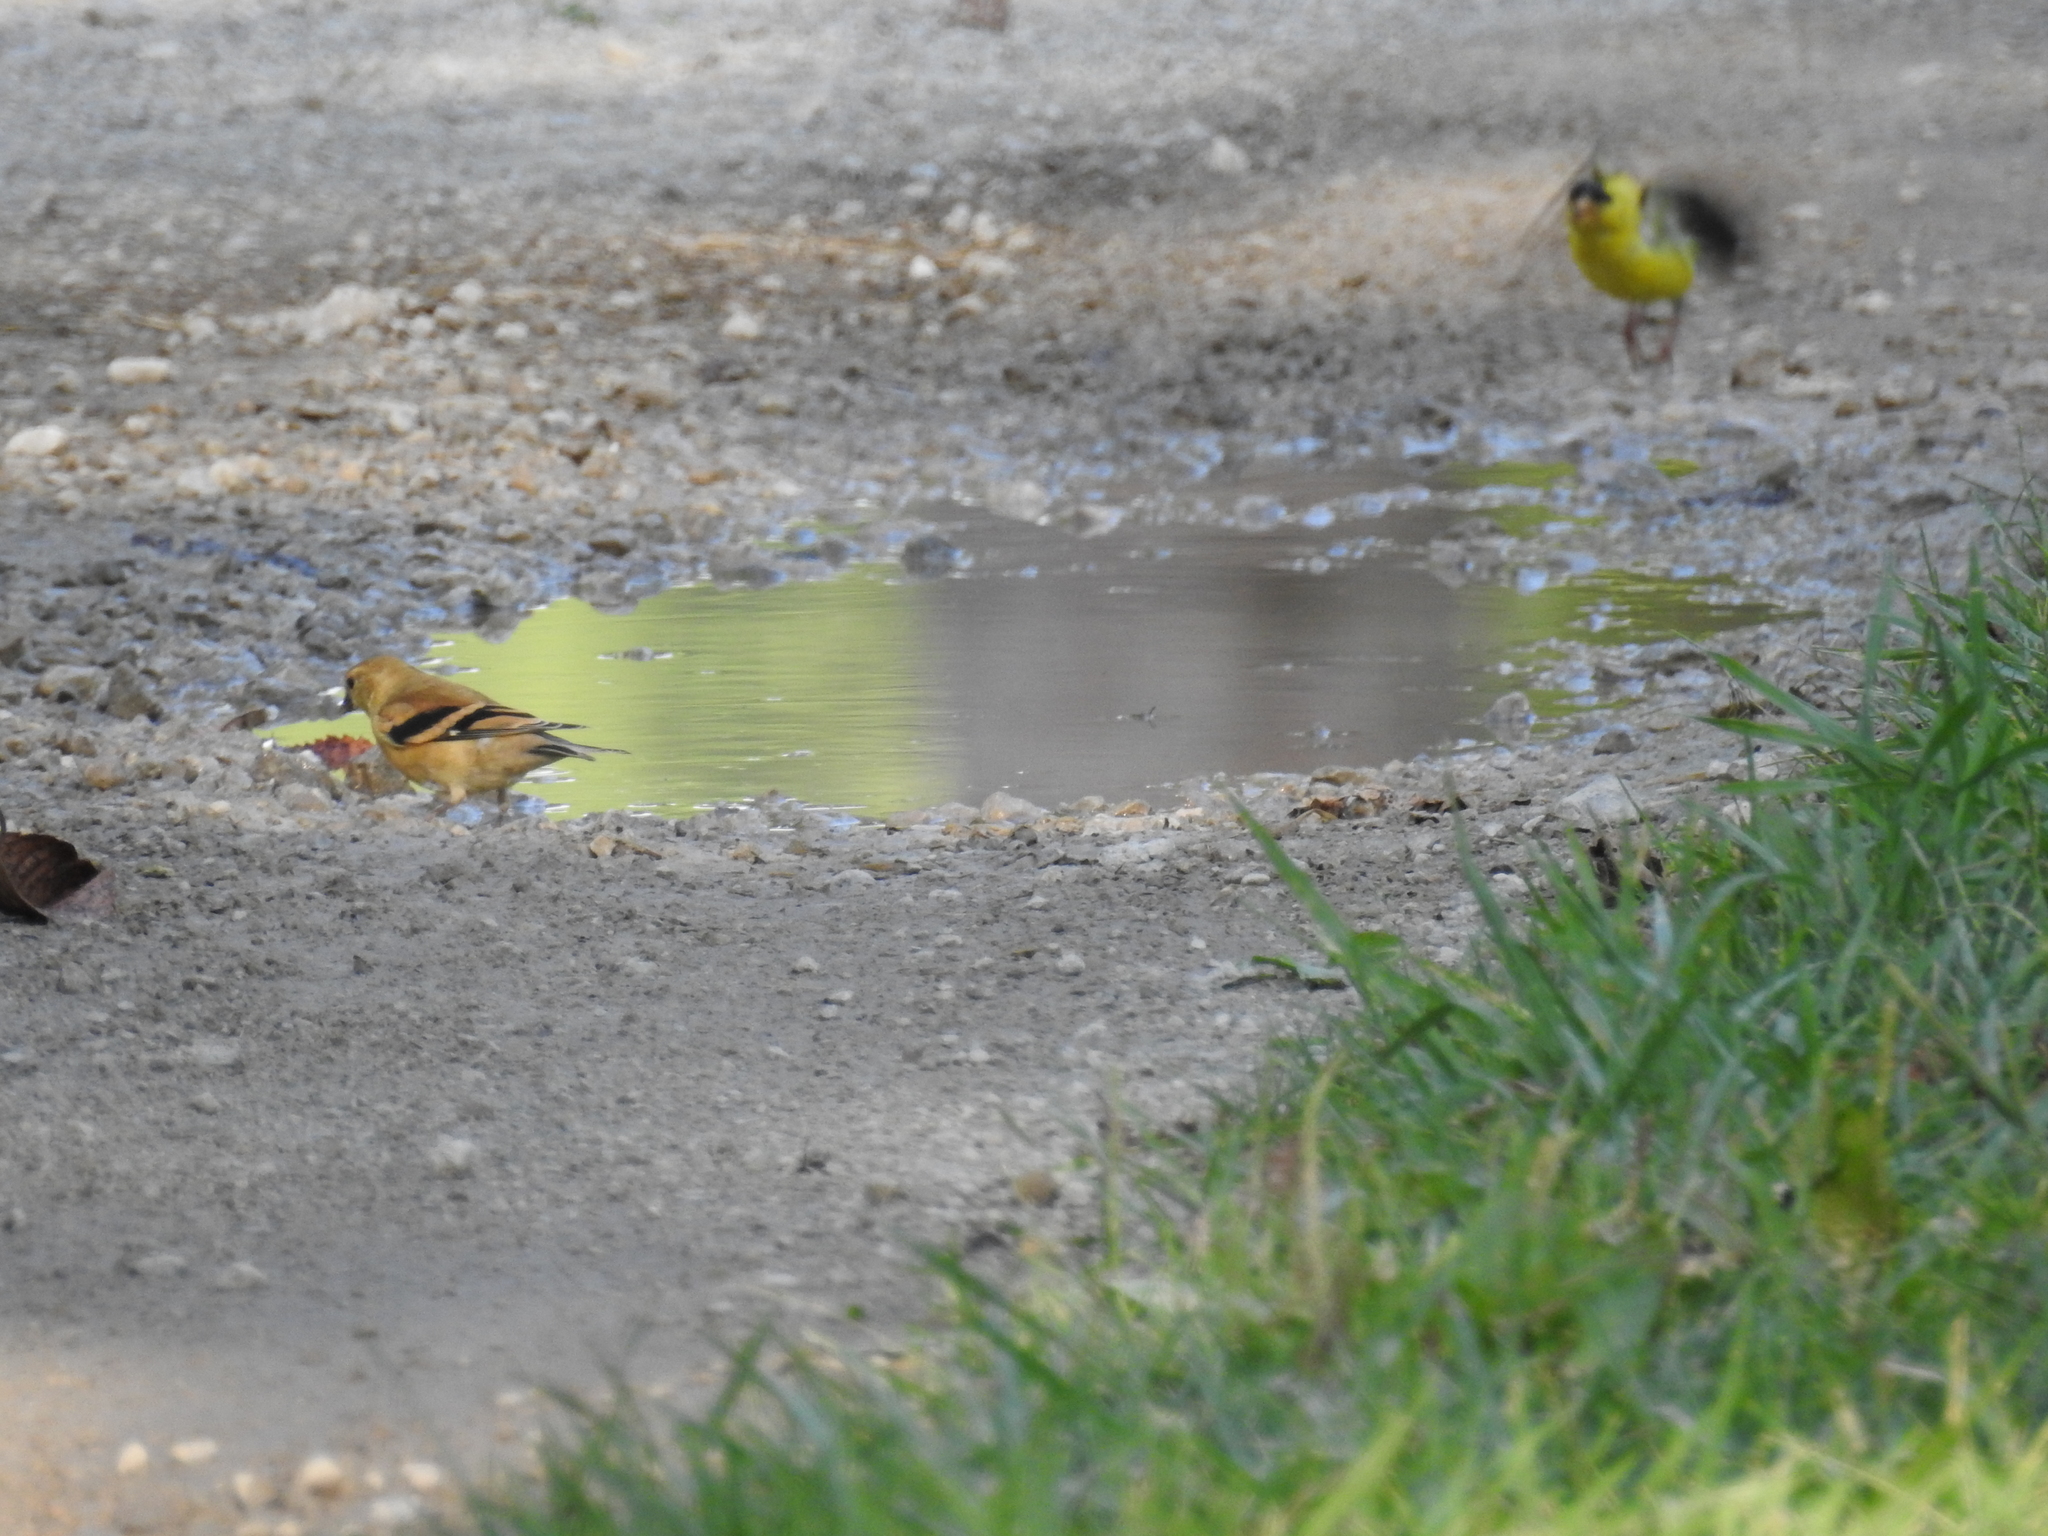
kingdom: Animalia
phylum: Chordata
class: Aves
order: Passeriformes
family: Fringillidae
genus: Spinus
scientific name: Spinus tristis
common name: American goldfinch
